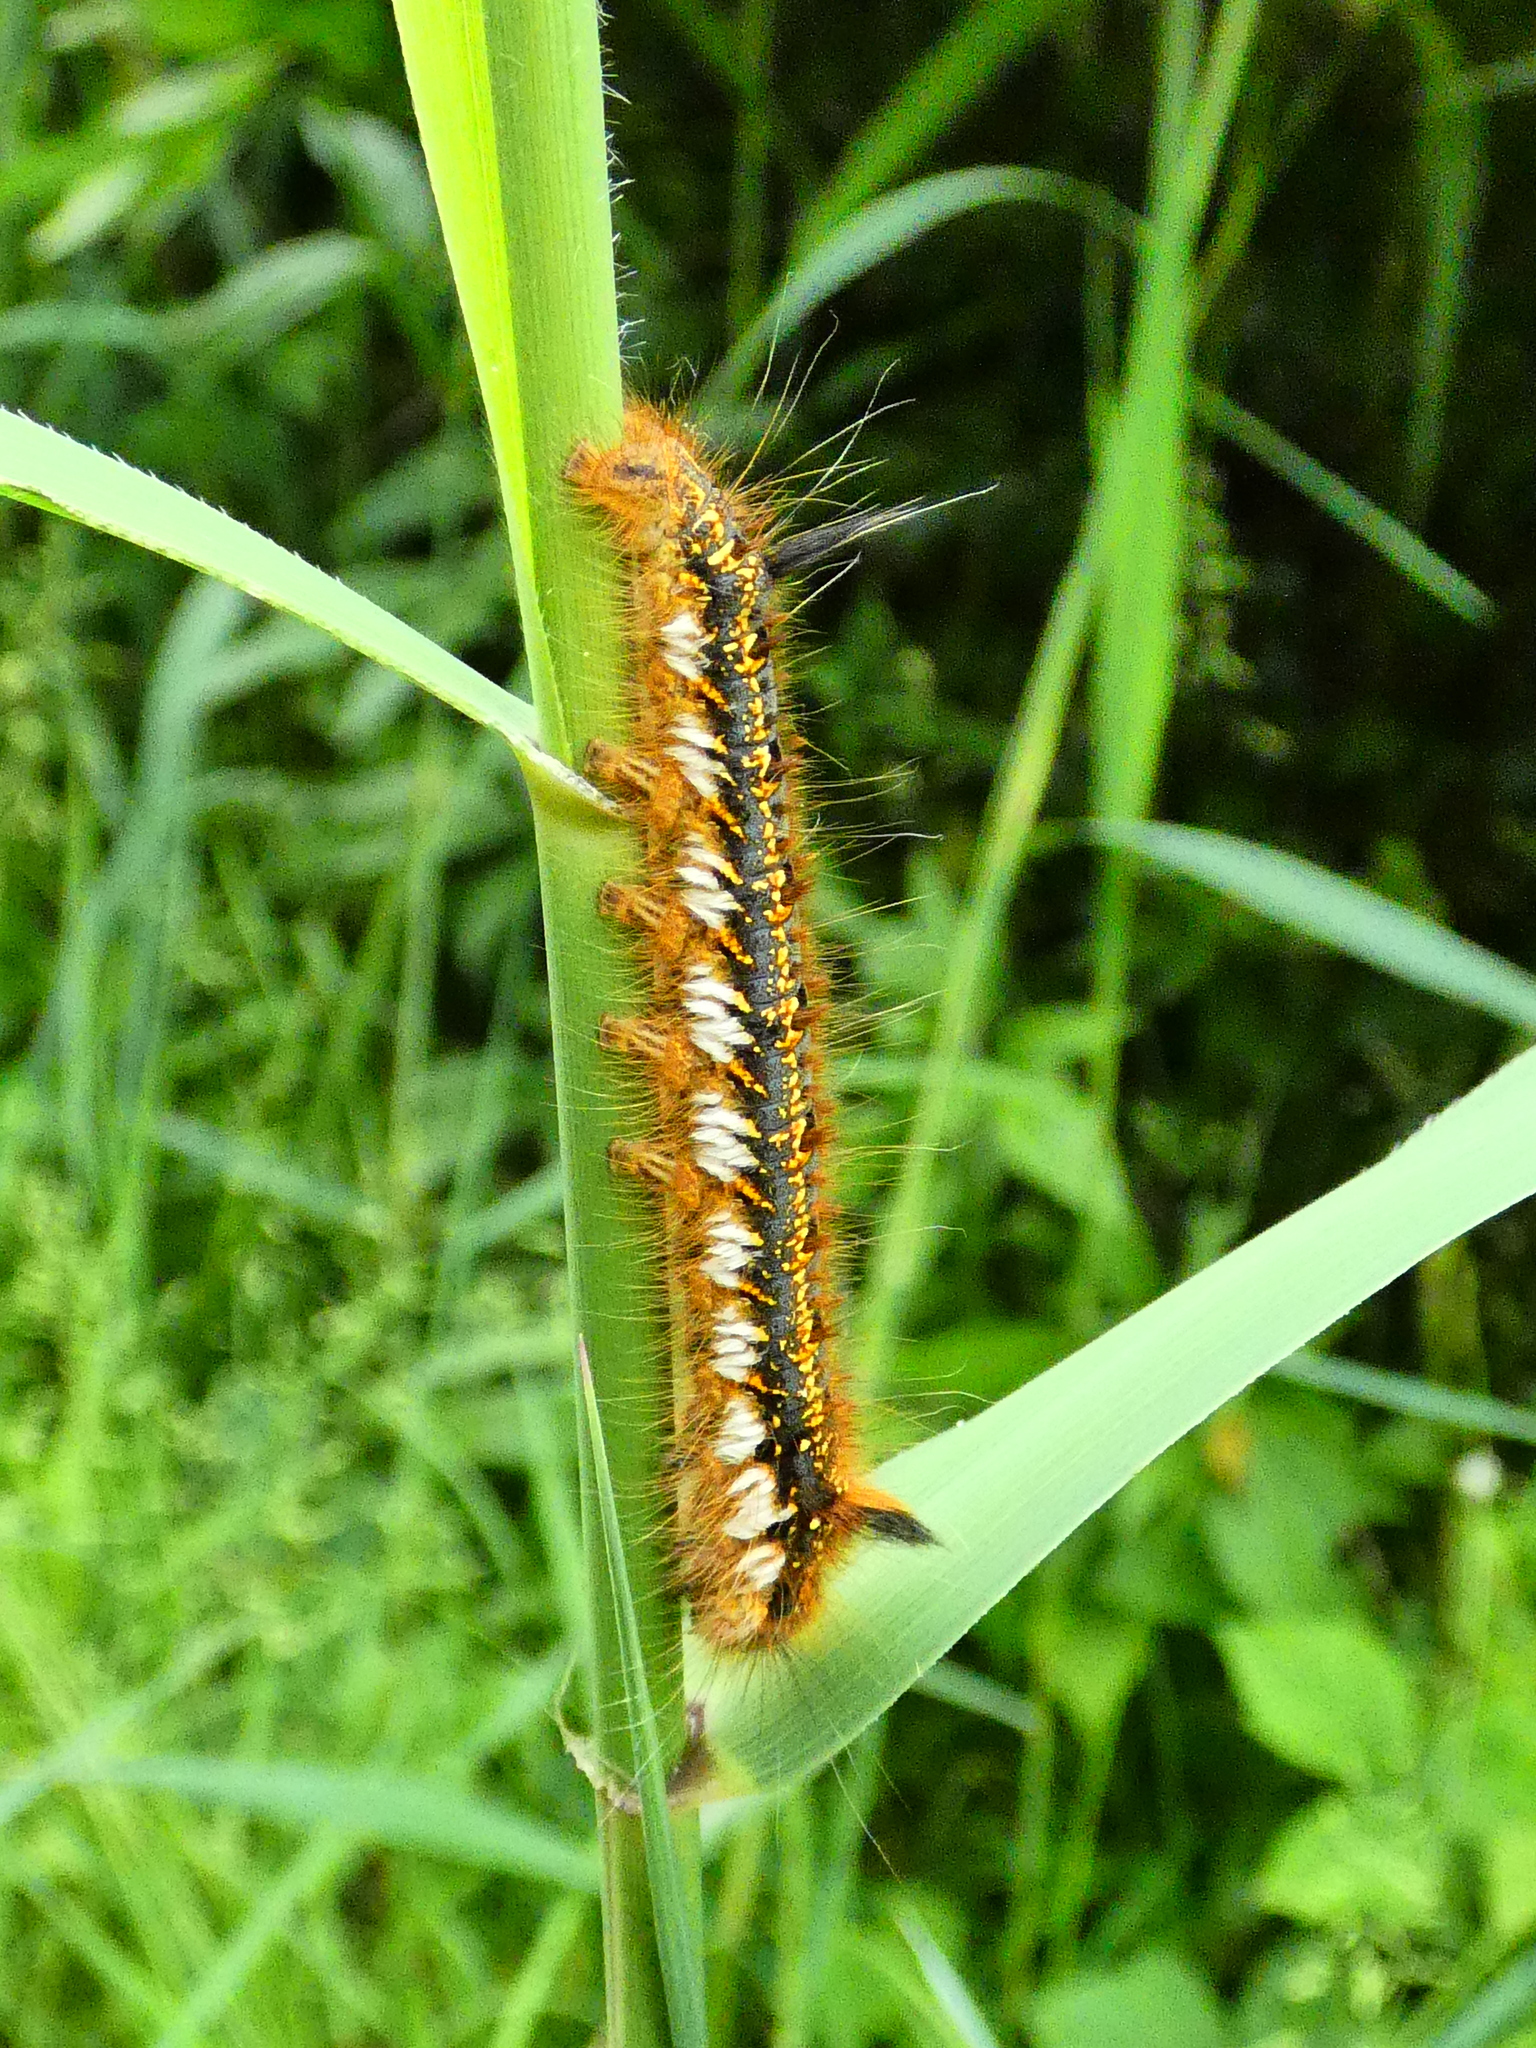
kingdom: Animalia
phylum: Arthropoda
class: Insecta
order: Lepidoptera
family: Lasiocampidae
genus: Euthrix
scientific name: Euthrix potatoria
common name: Drinker
